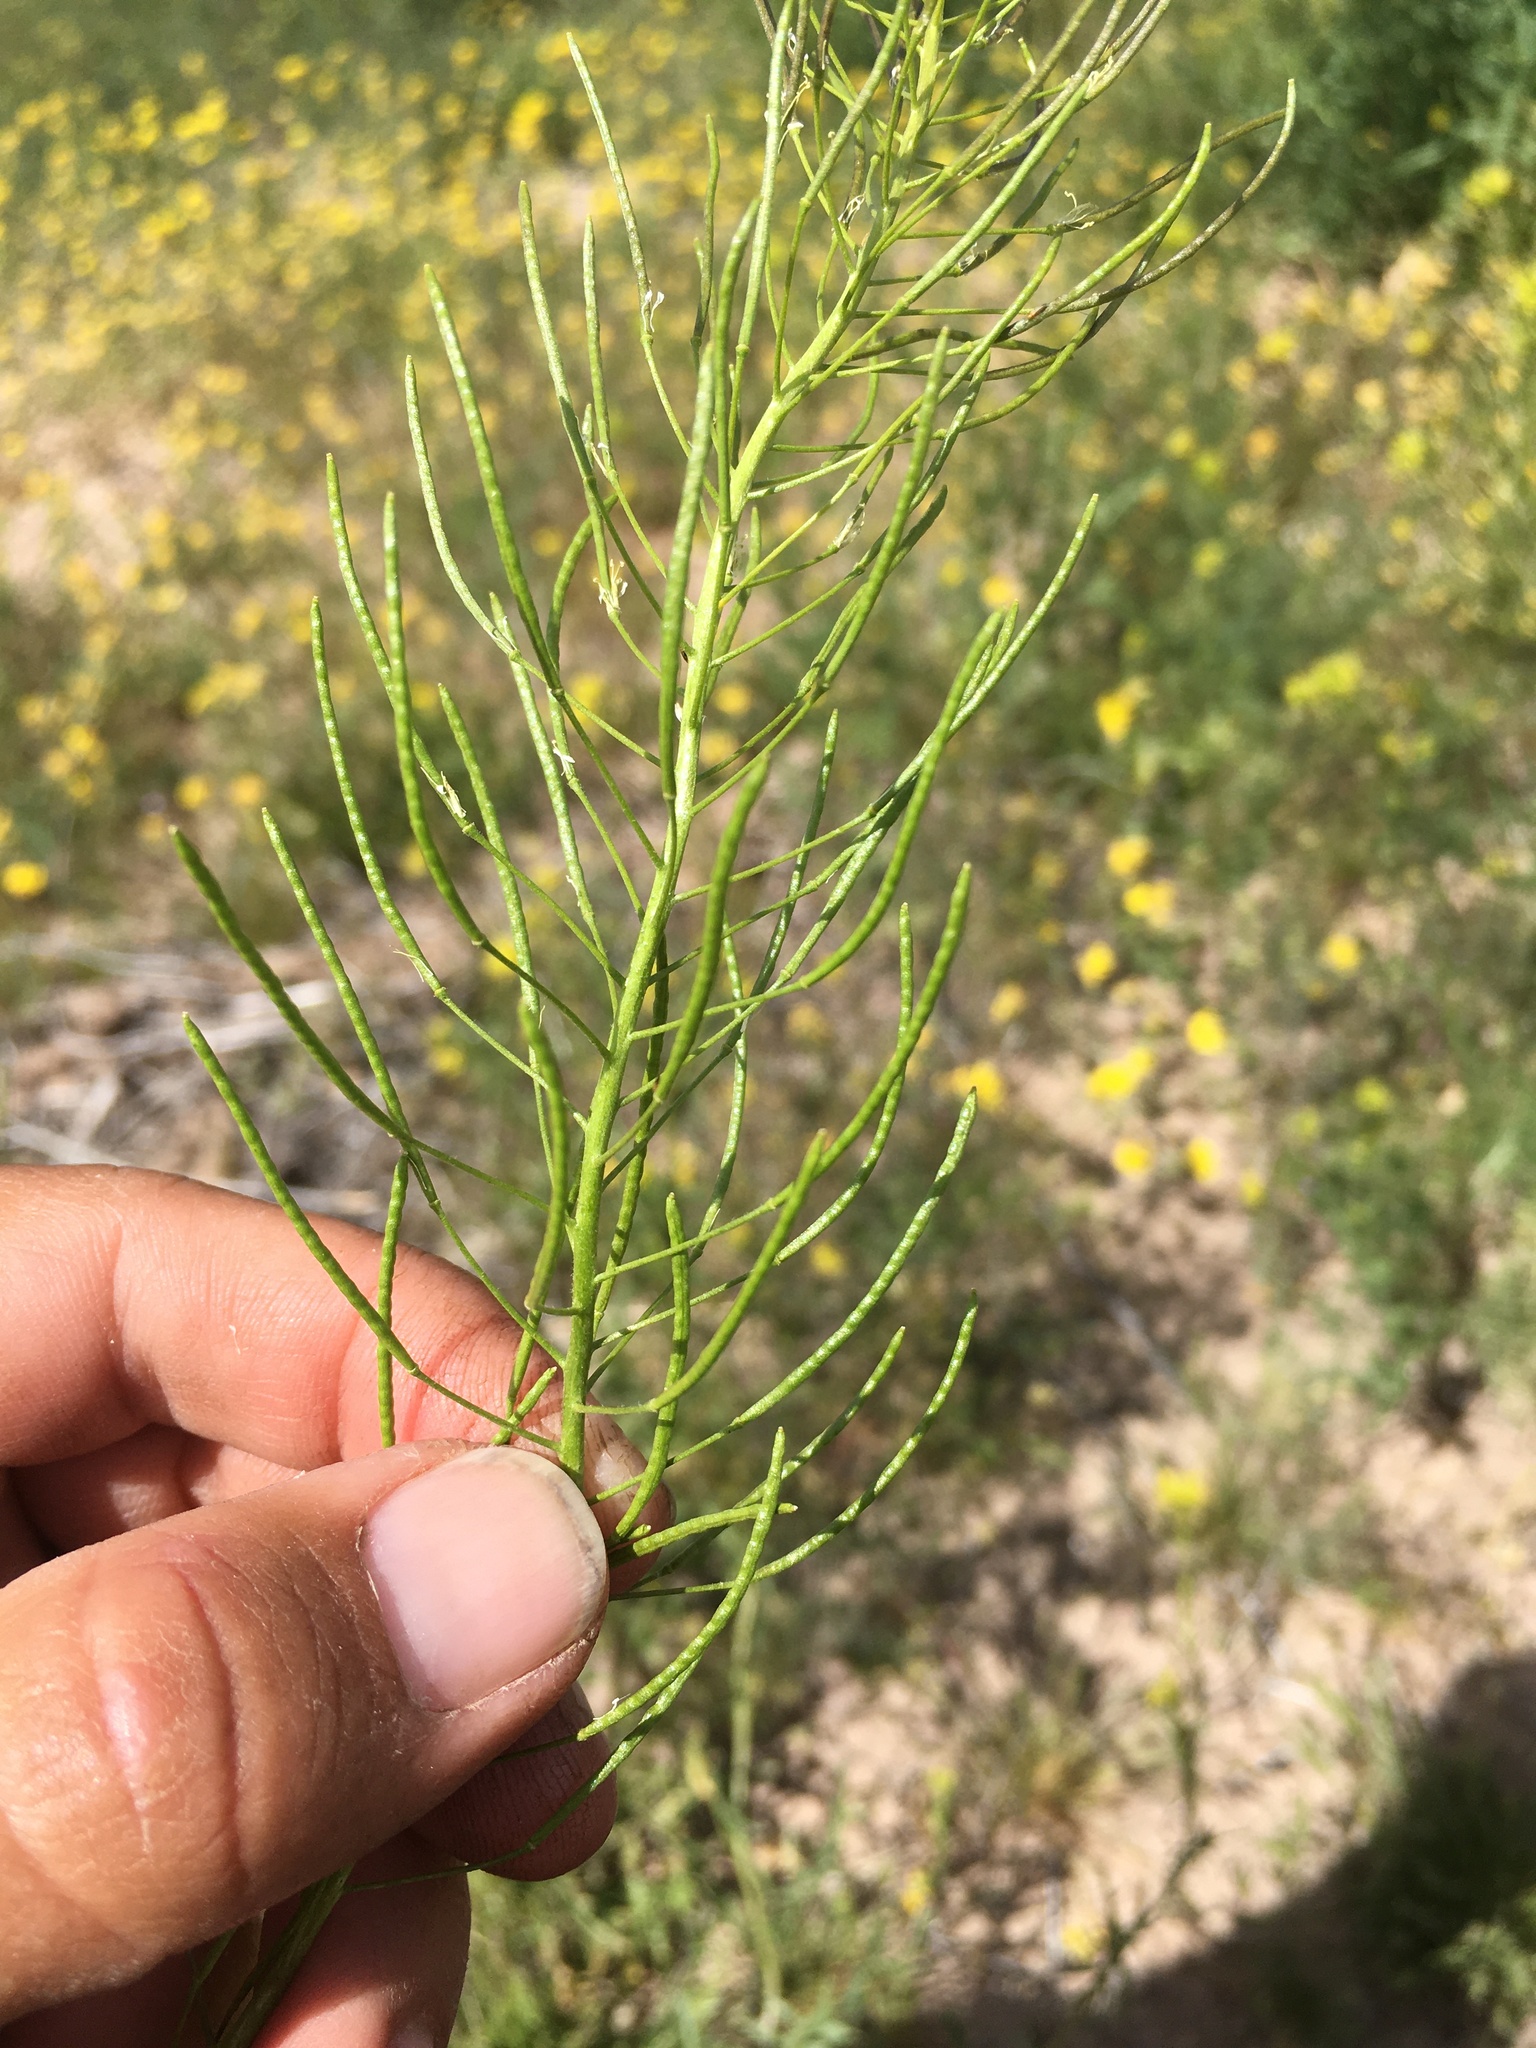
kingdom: Plantae
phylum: Tracheophyta
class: Magnoliopsida
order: Brassicales
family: Brassicaceae
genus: Descurainia
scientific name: Descurainia sophia
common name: Flixweed
